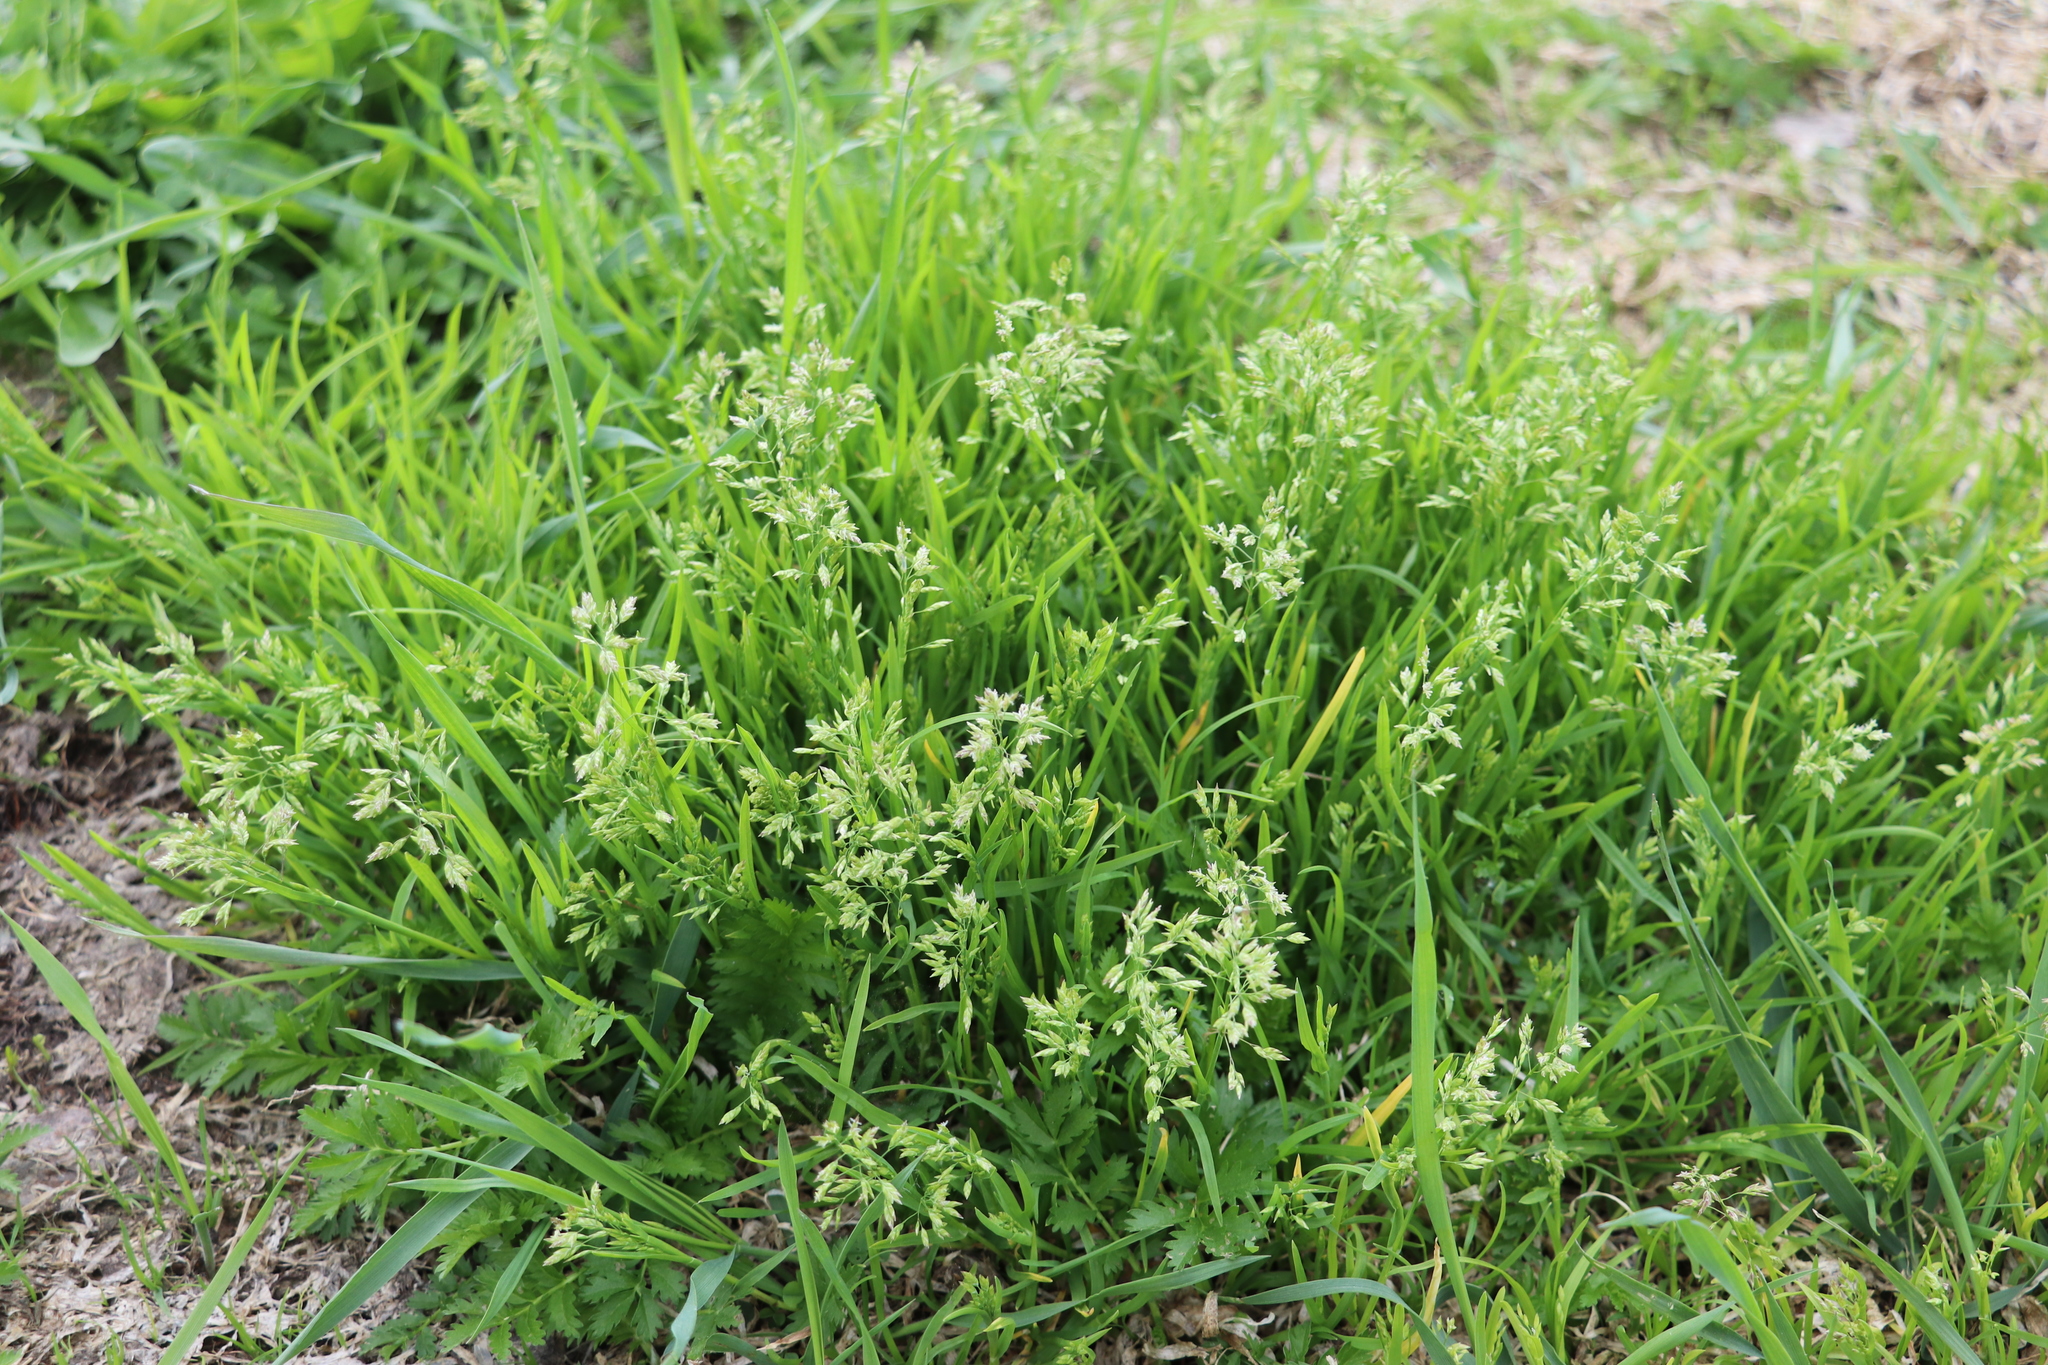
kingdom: Plantae
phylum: Tracheophyta
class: Liliopsida
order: Poales
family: Poaceae
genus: Poa
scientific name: Poa annua
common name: Annual bluegrass
